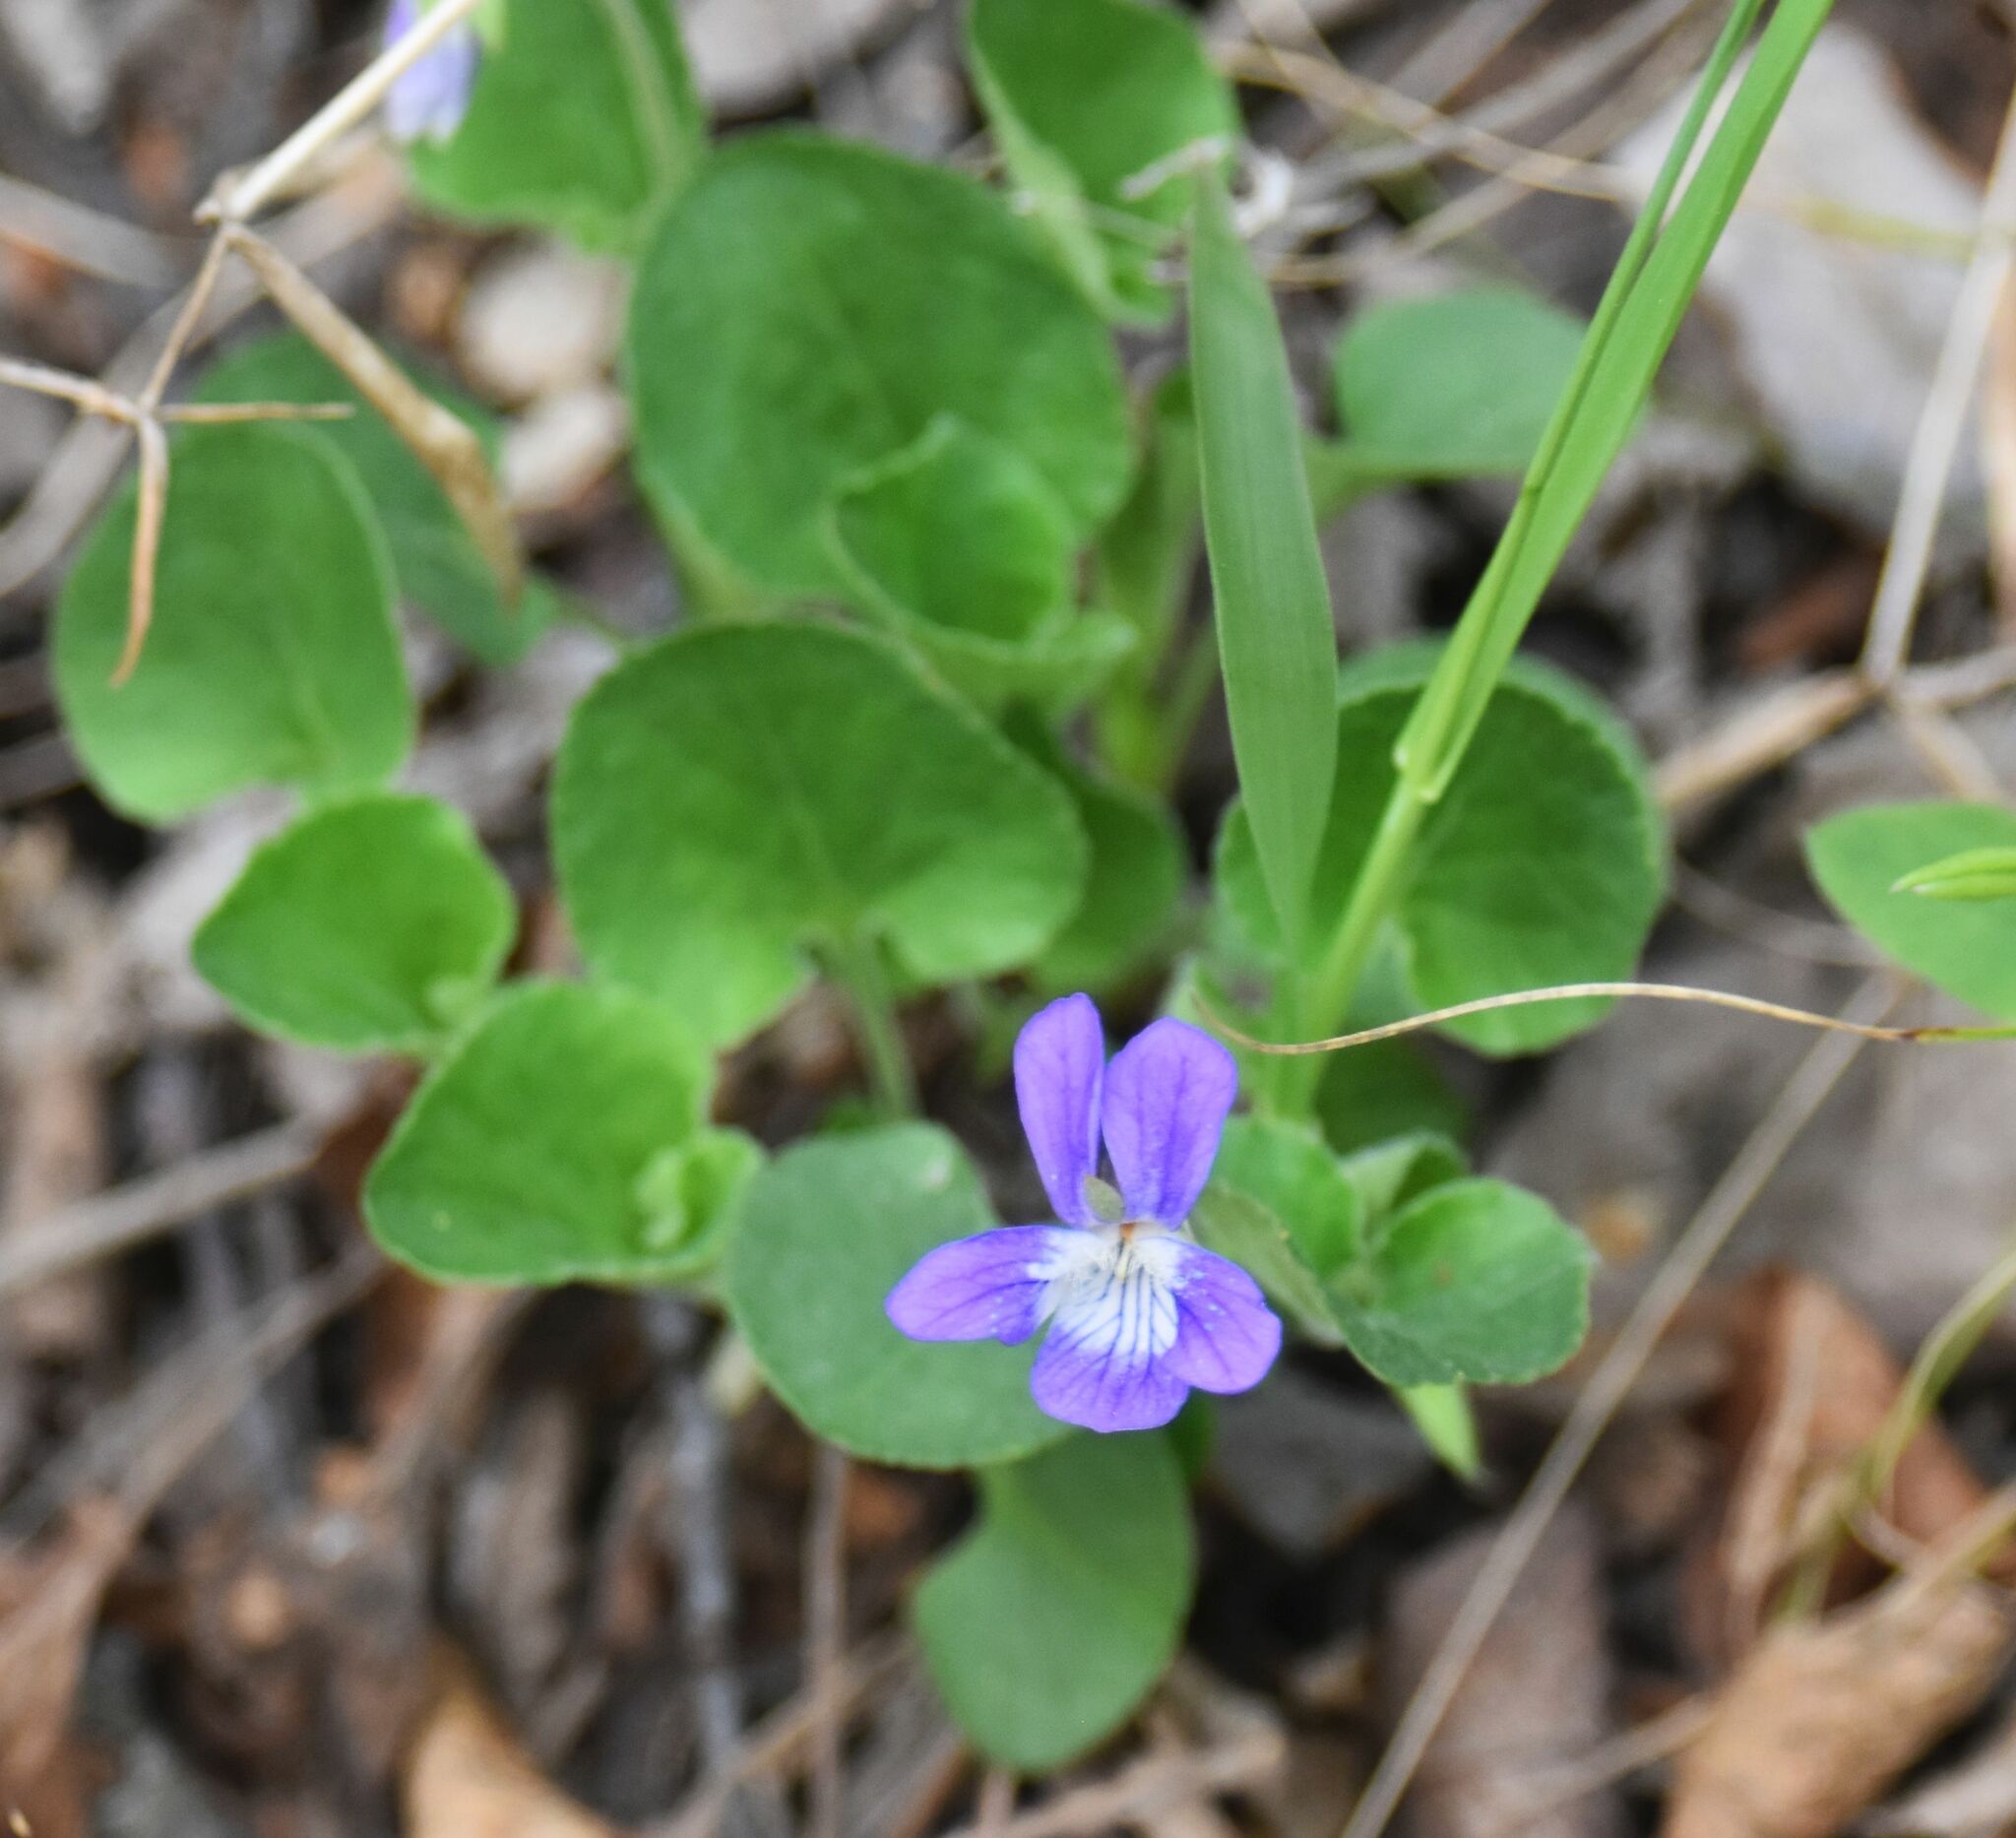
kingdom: Plantae
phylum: Tracheophyta
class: Magnoliopsida
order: Malpighiales
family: Violaceae
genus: Viola
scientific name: Viola adunca
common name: Sand violet
